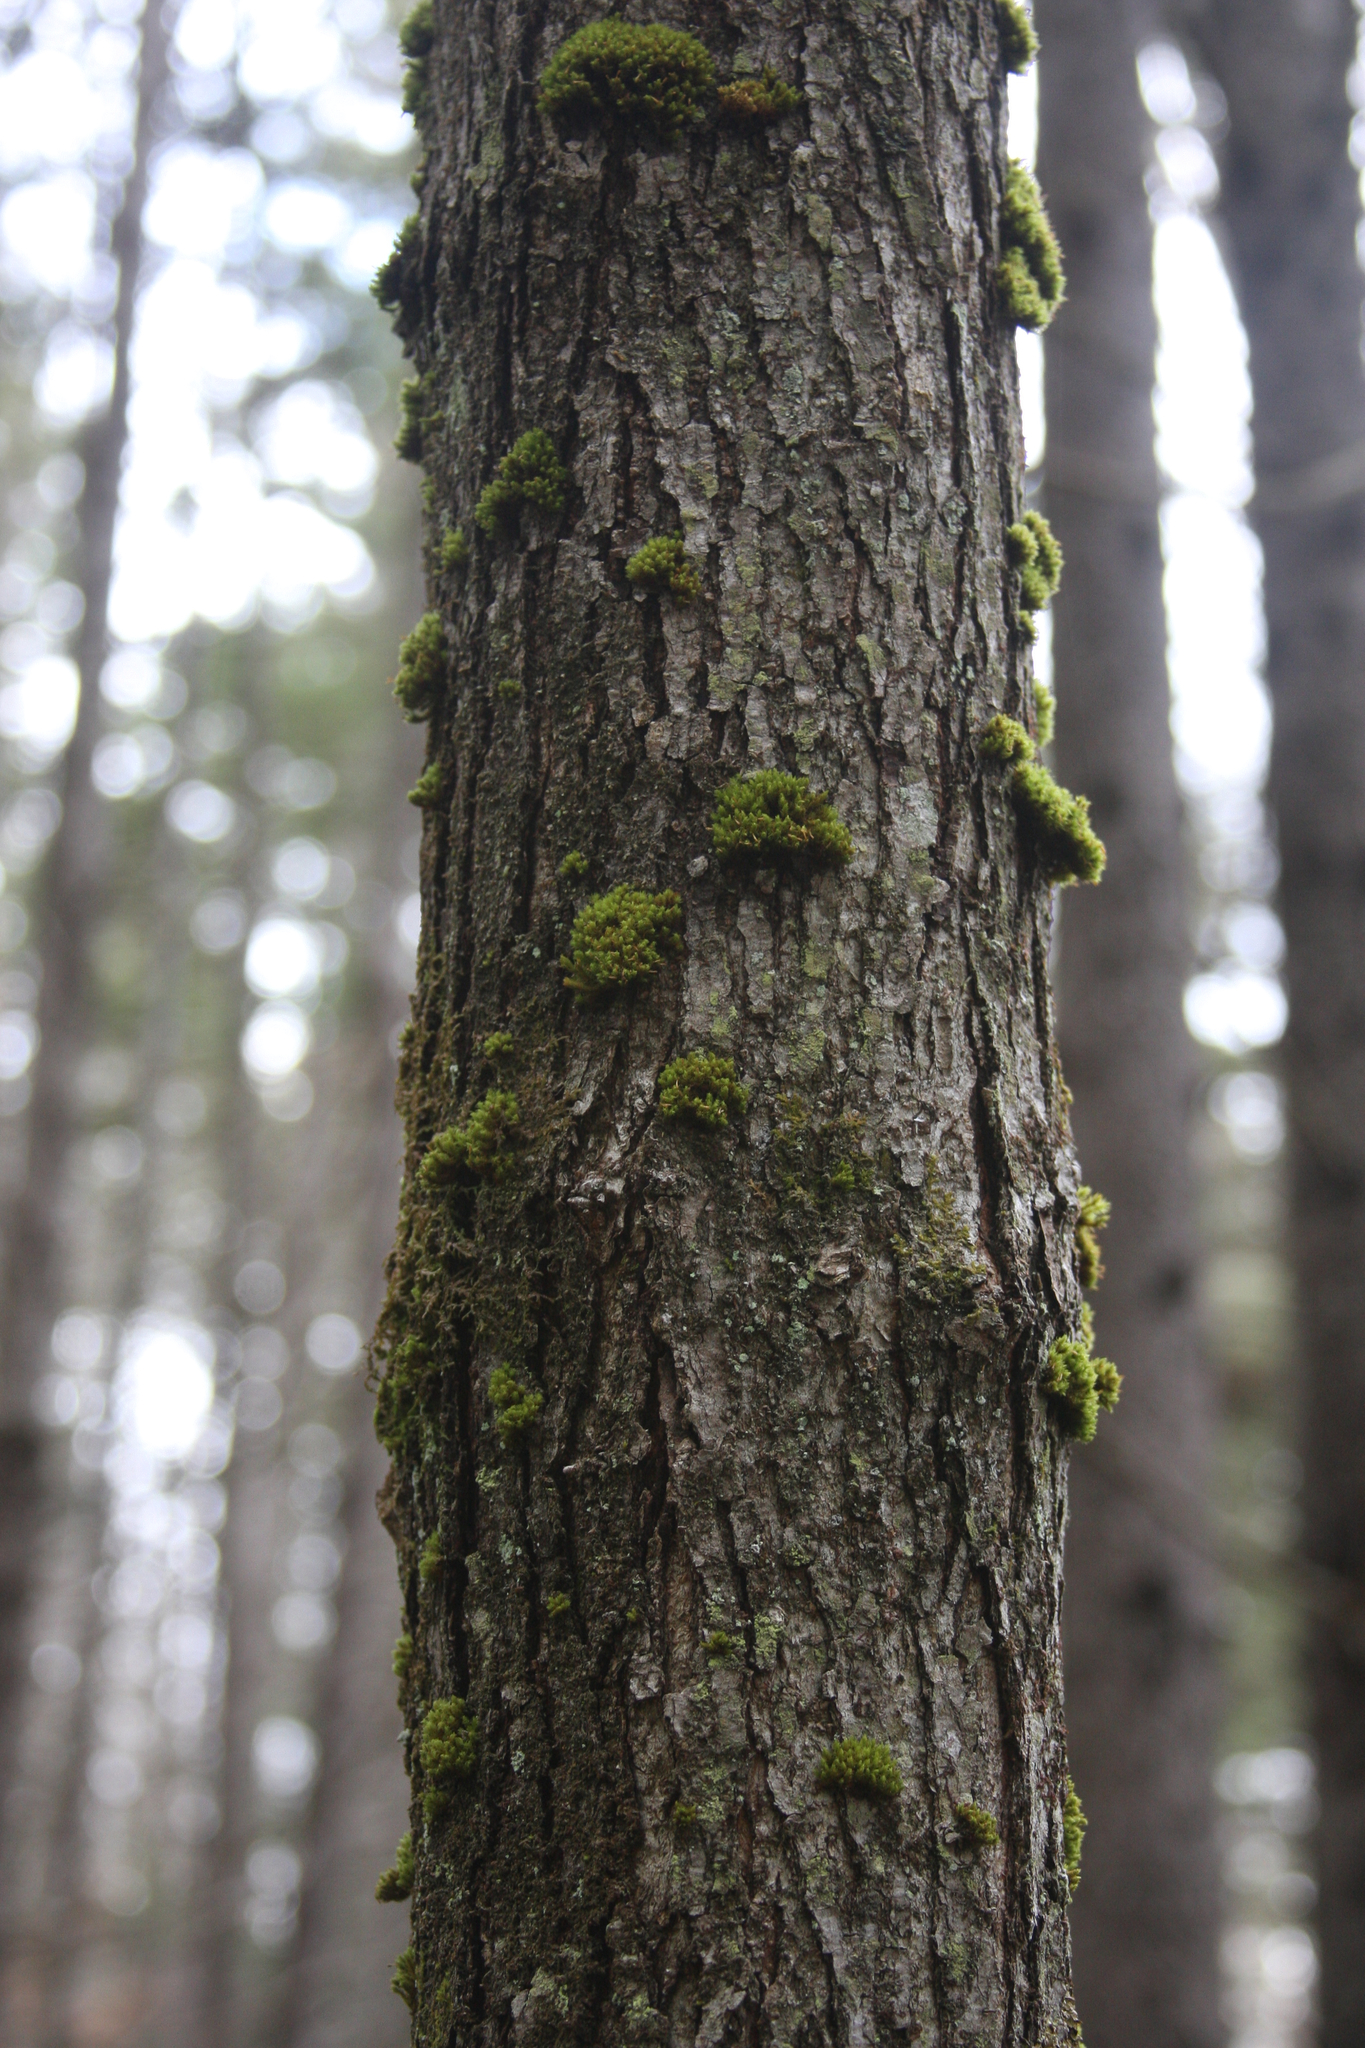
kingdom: Plantae
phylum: Bryophyta
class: Bryopsida
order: Orthotrichales
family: Orthotrichaceae
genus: Ulota
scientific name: Ulota crispa
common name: Crisped pincushion moss
